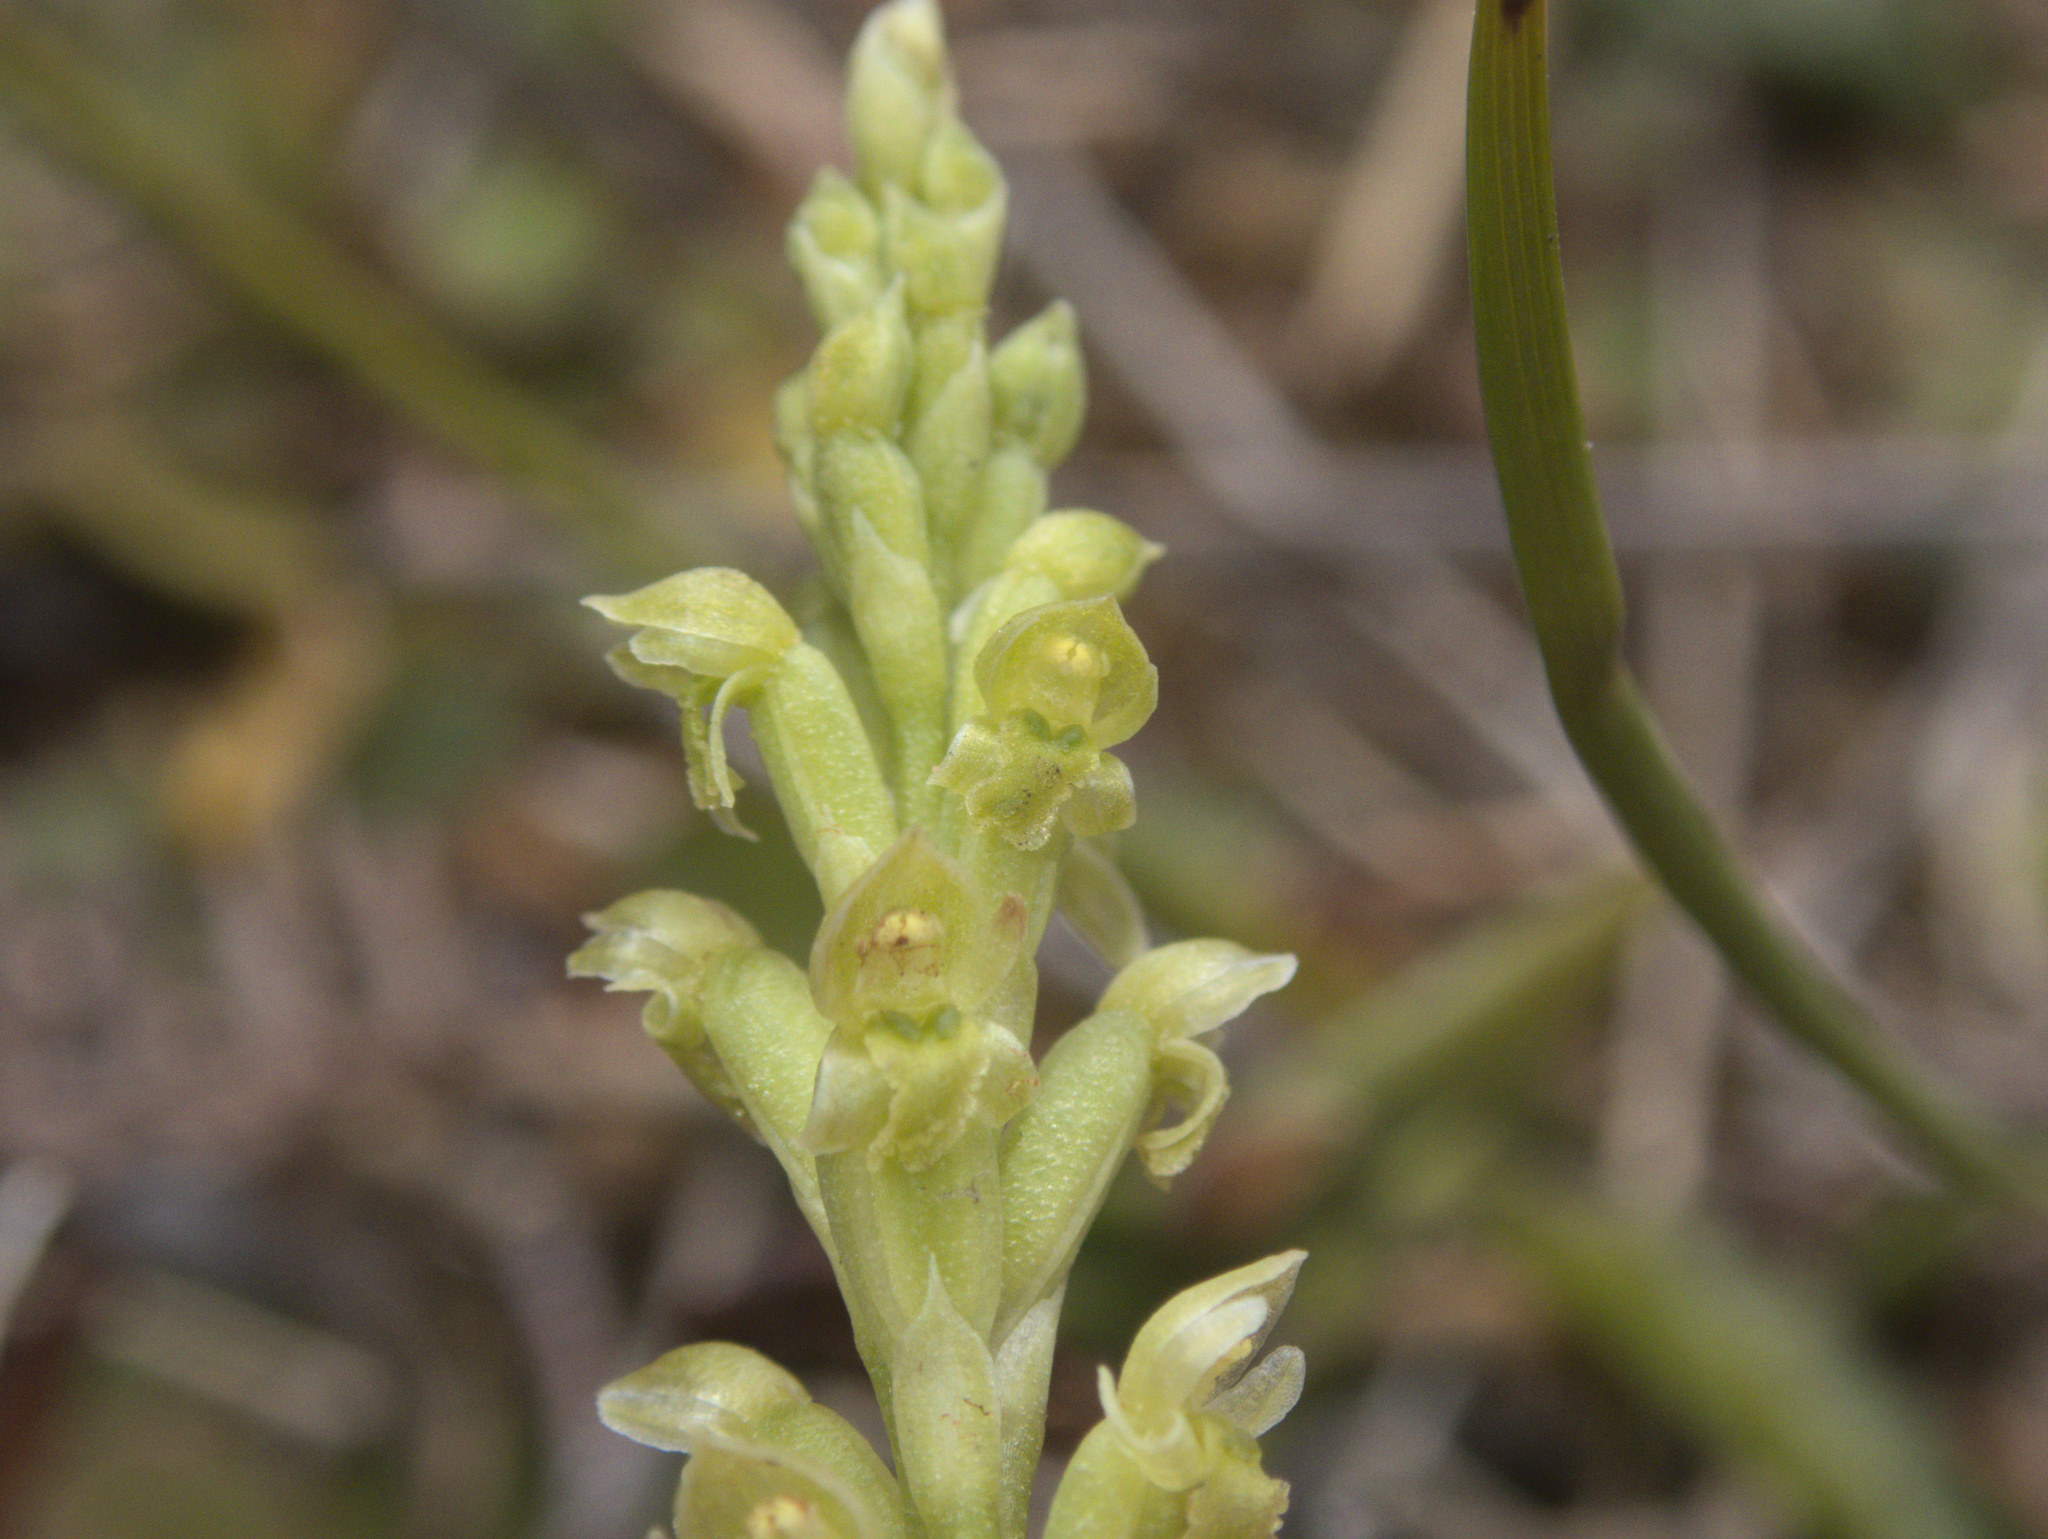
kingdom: Plantae
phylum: Tracheophyta
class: Liliopsida
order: Asparagales
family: Orchidaceae
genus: Microtis
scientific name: Microtis unifolia
